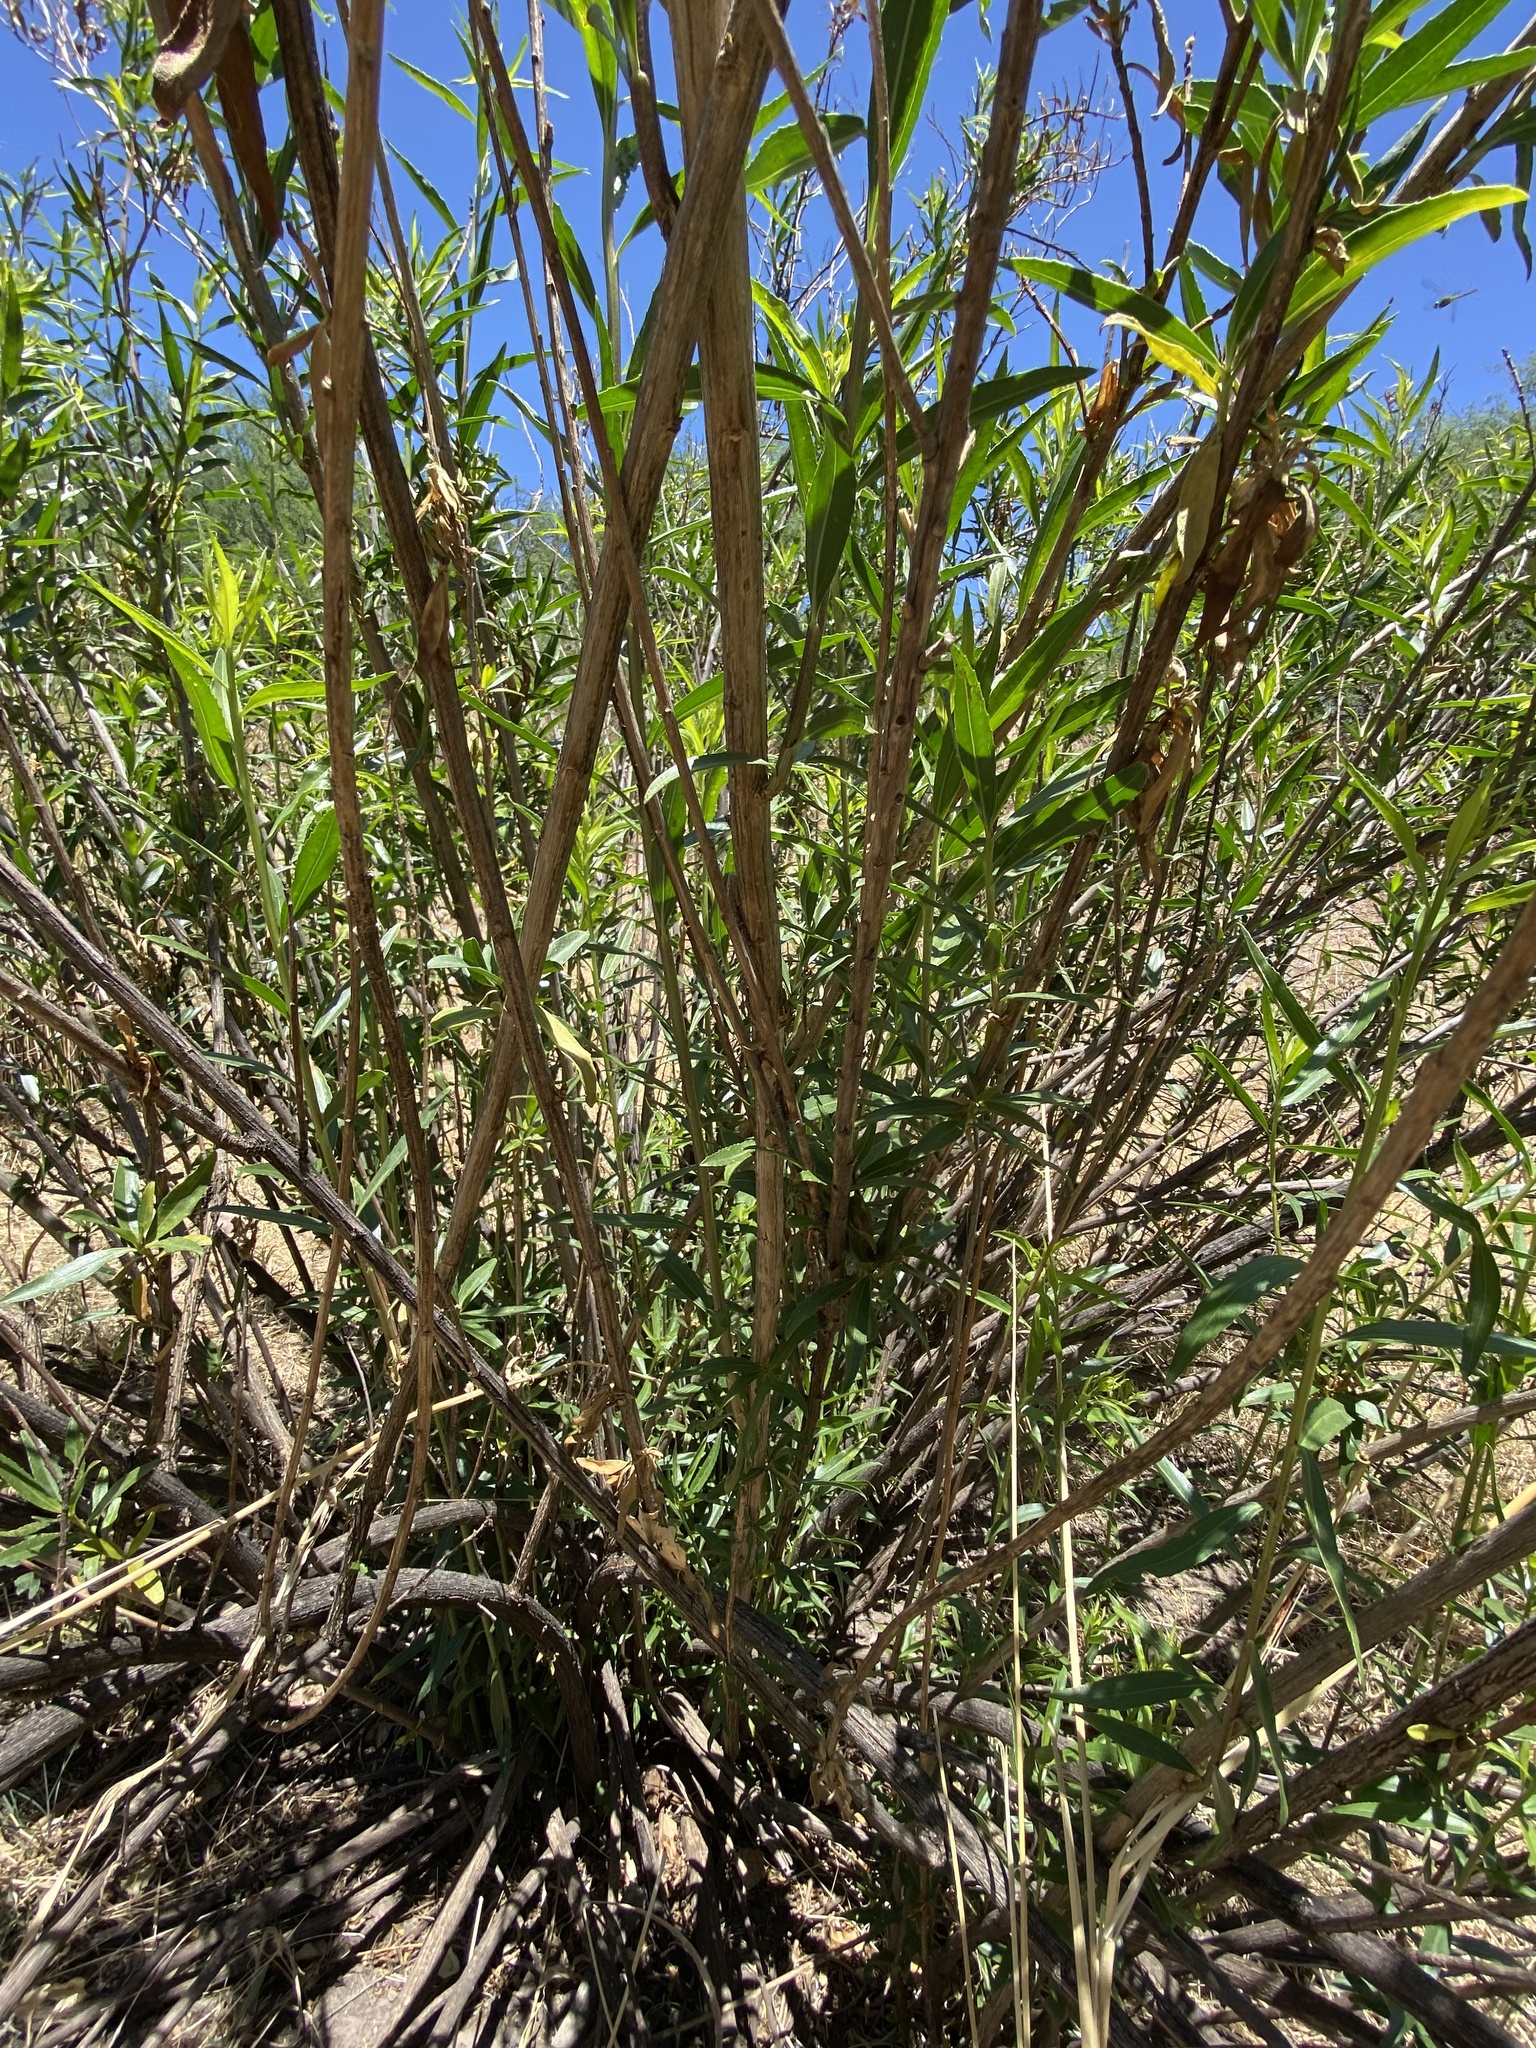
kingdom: Plantae
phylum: Tracheophyta
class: Magnoliopsida
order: Asterales
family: Asteraceae
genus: Baccharis
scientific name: Baccharis salicifolia
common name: Sticky baccharis
